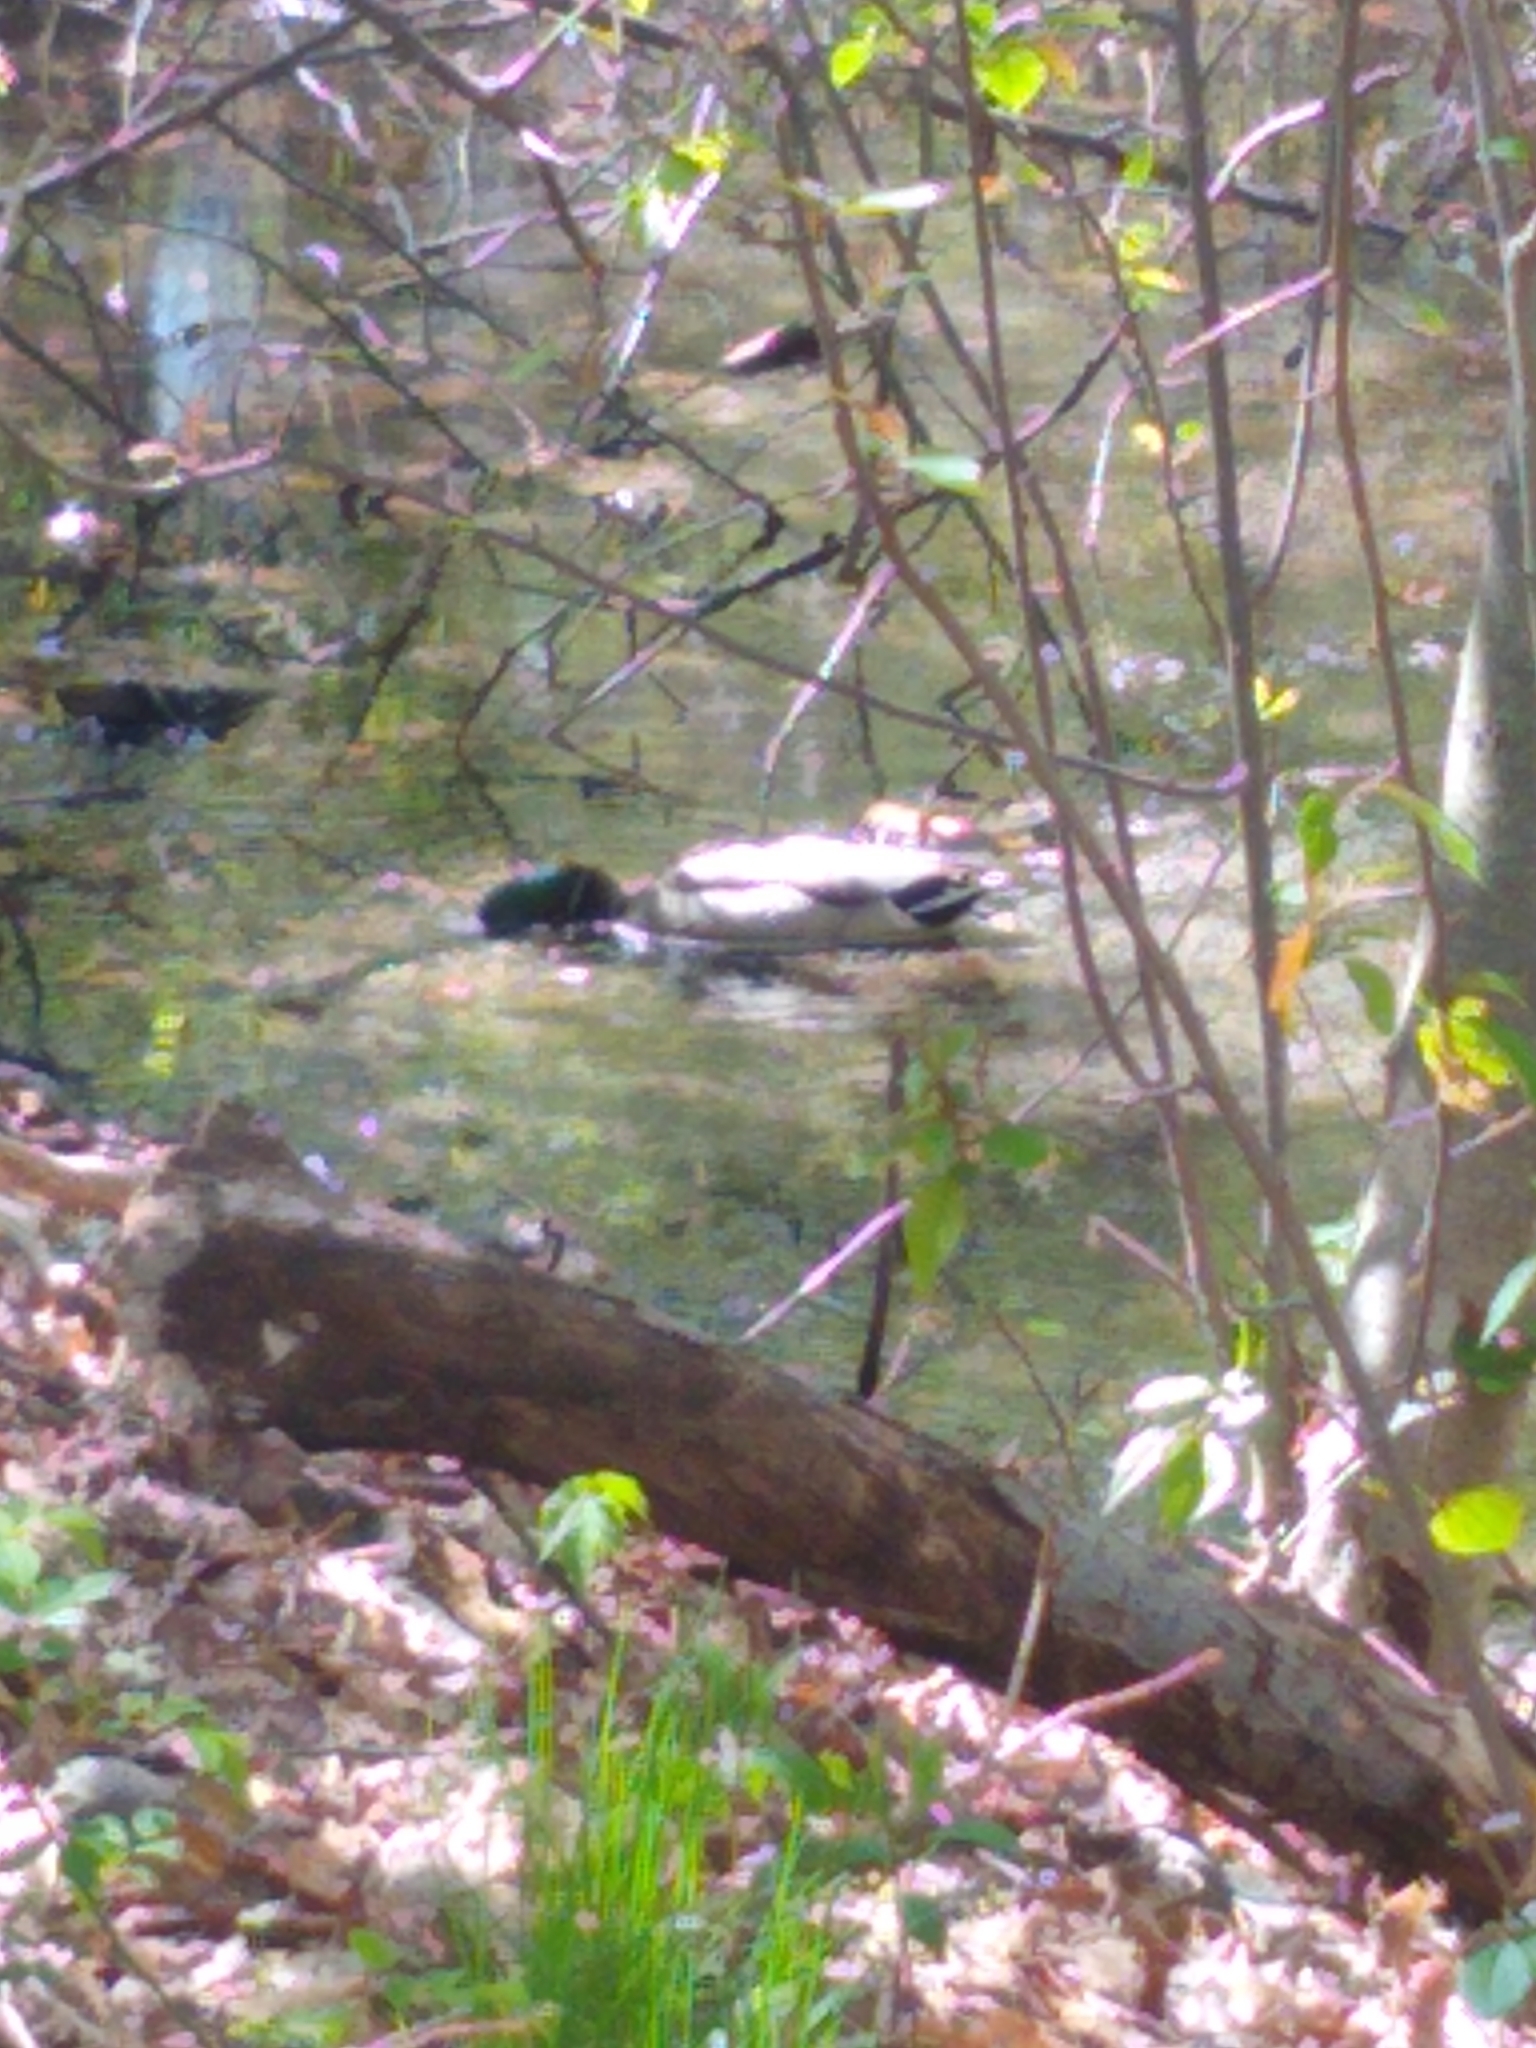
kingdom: Animalia
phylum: Chordata
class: Aves
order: Anseriformes
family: Anatidae
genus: Anas
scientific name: Anas platyrhynchos
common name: Mallard
